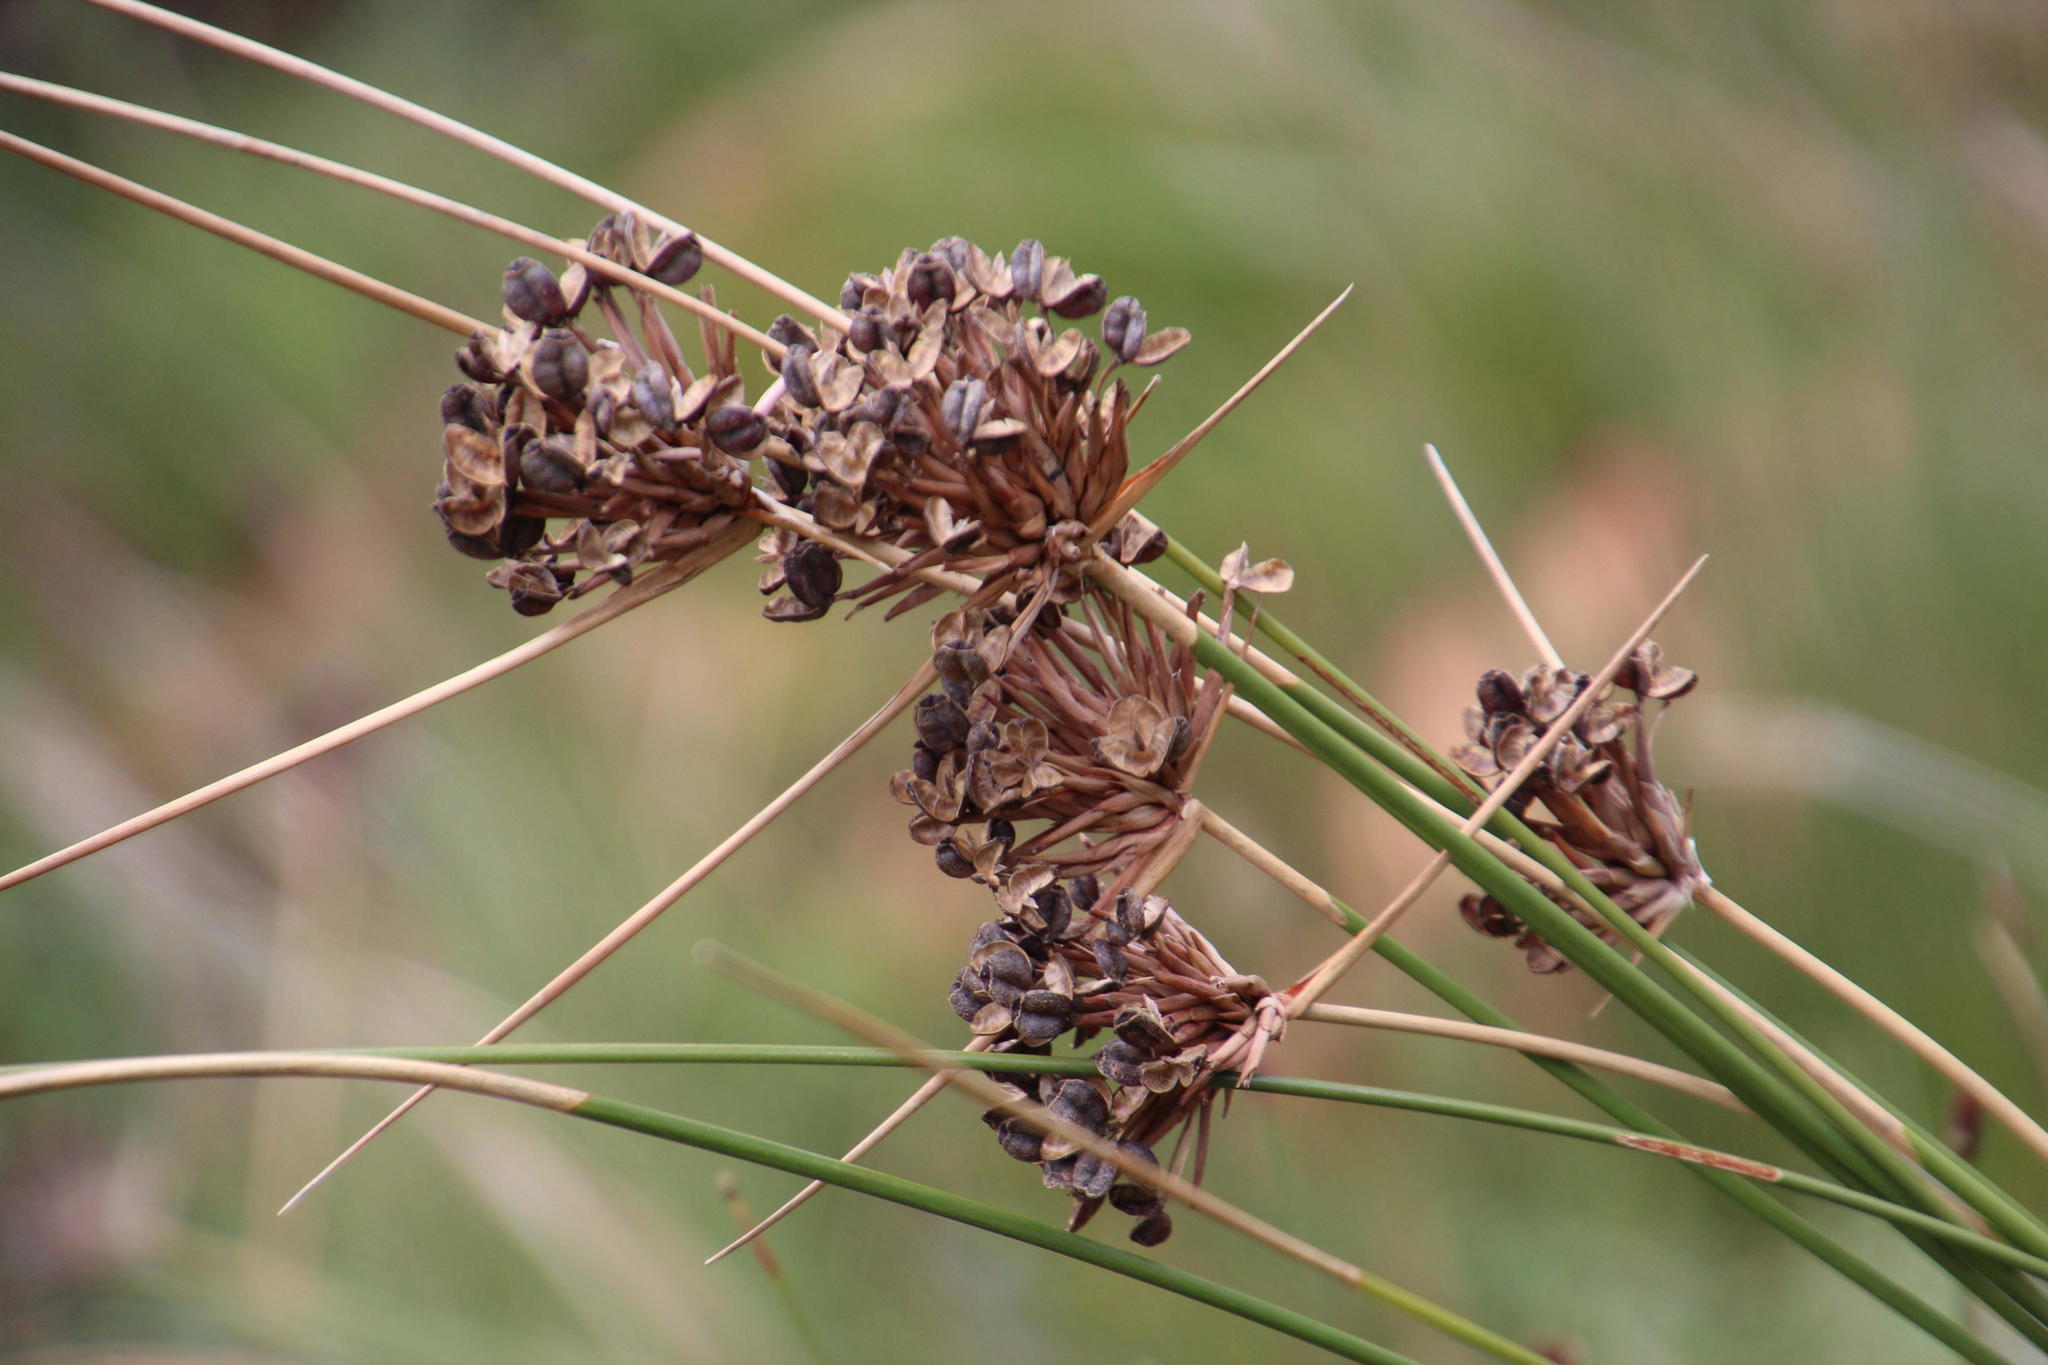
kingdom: Plantae
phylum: Tracheophyta
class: Liliopsida
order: Asparagales
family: Iridaceae
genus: Bobartia
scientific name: Bobartia indica
